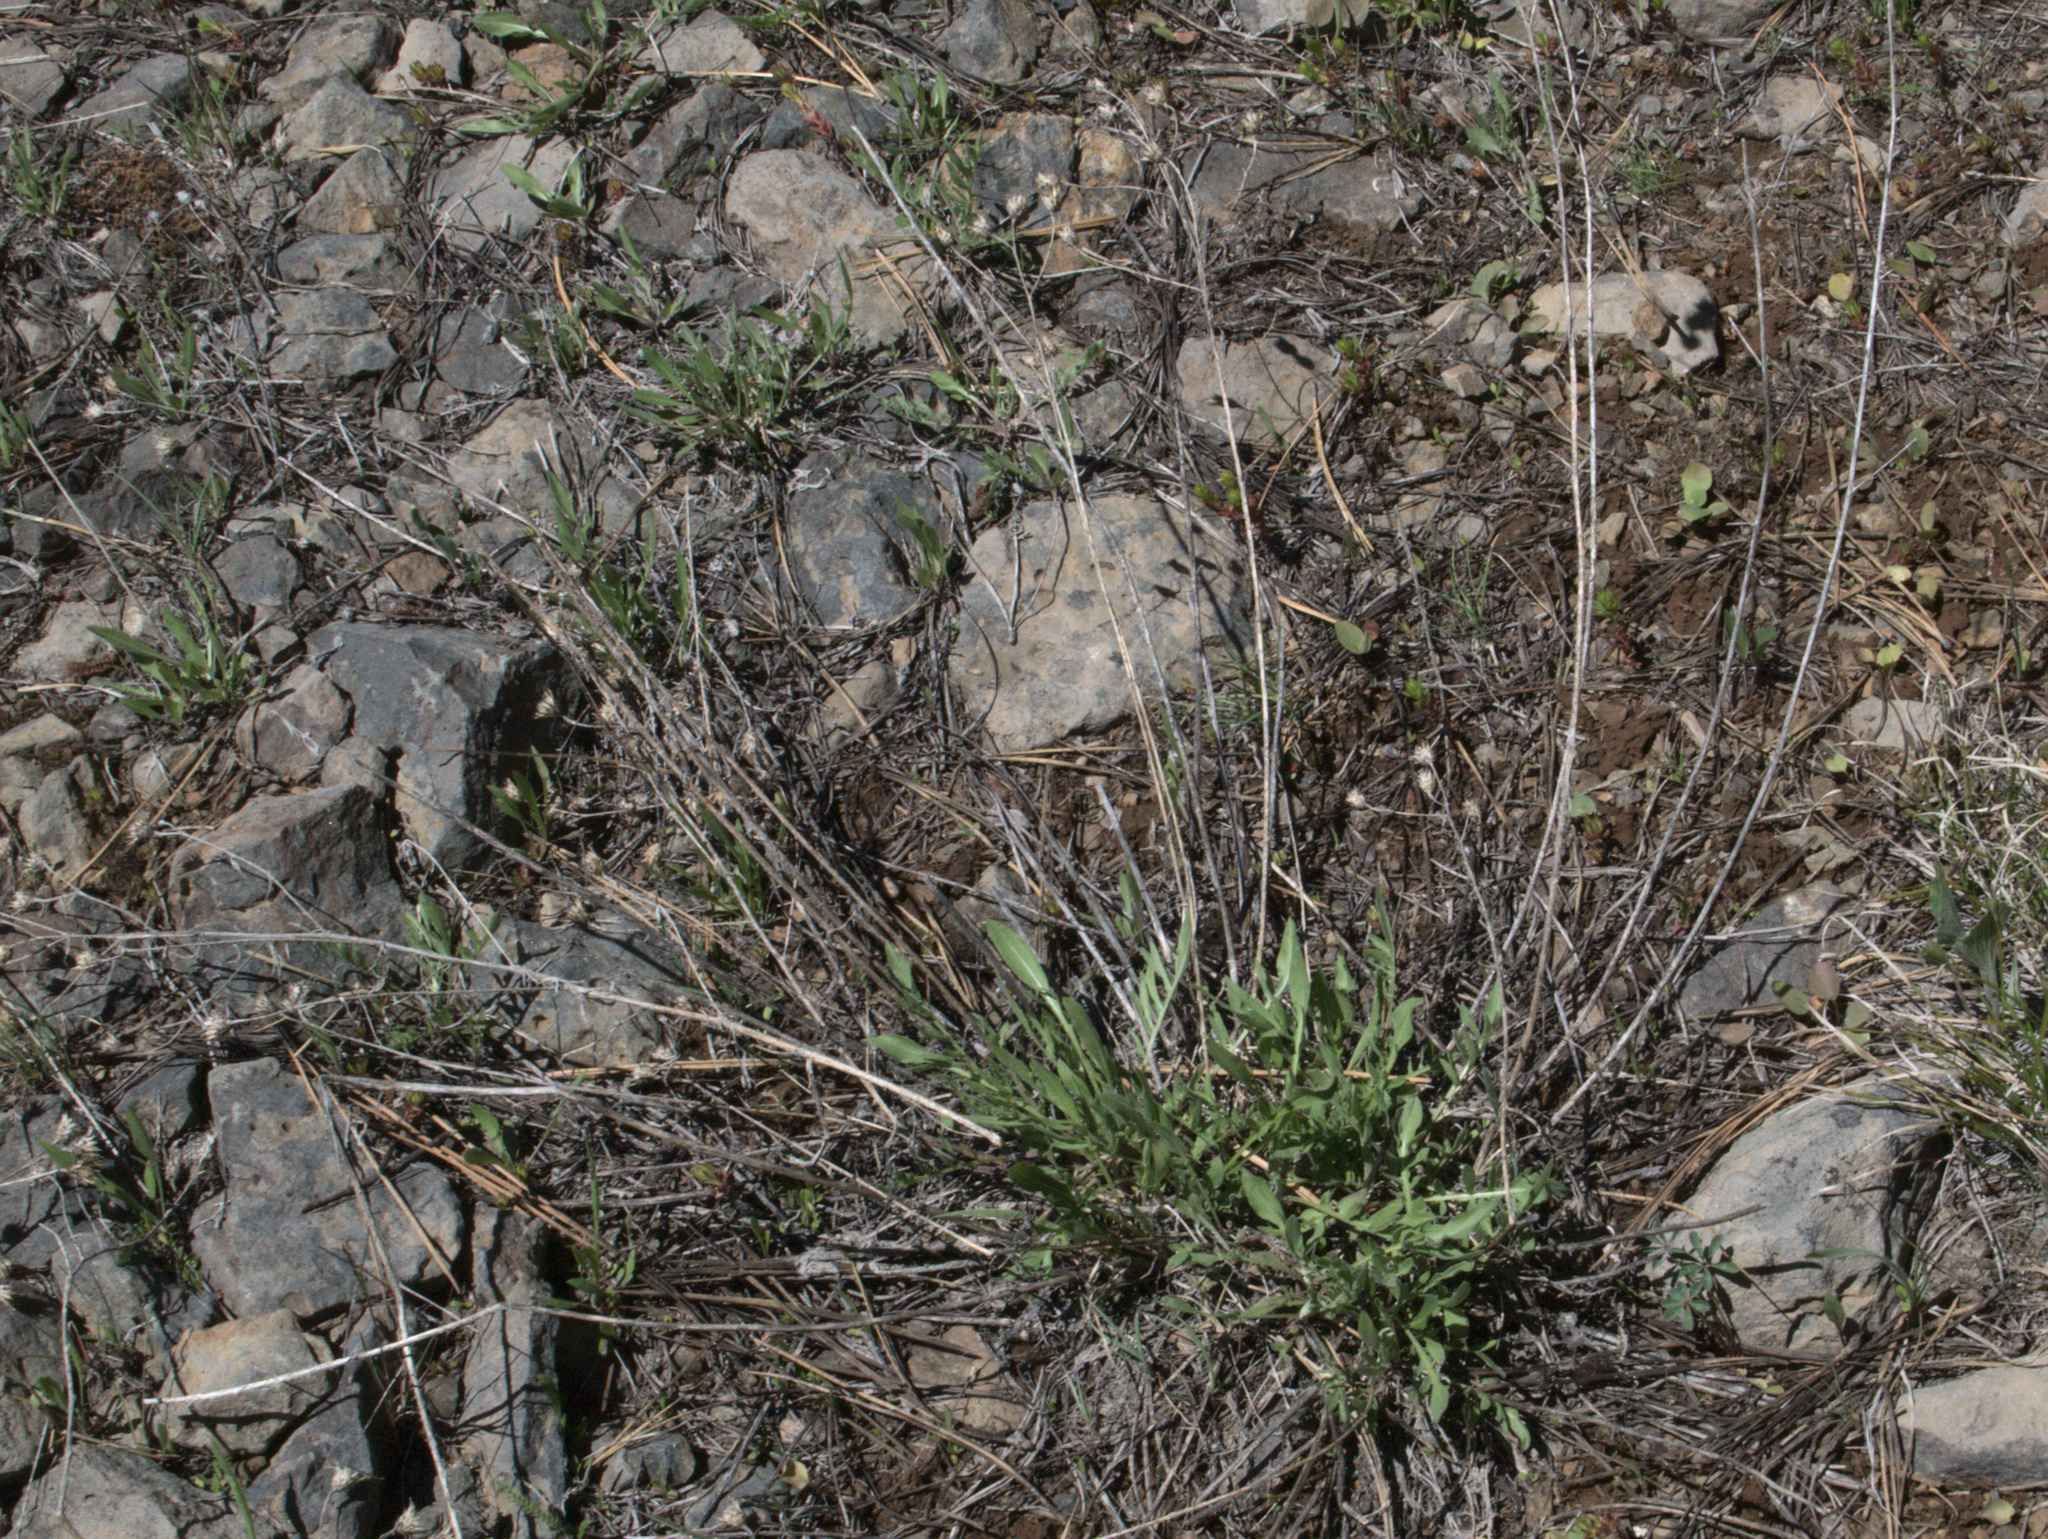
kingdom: Plantae
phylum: Tracheophyta
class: Magnoliopsida
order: Asterales
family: Asteraceae
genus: Centaurea
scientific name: Centaurea stoebe
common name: Spotted knapweed
